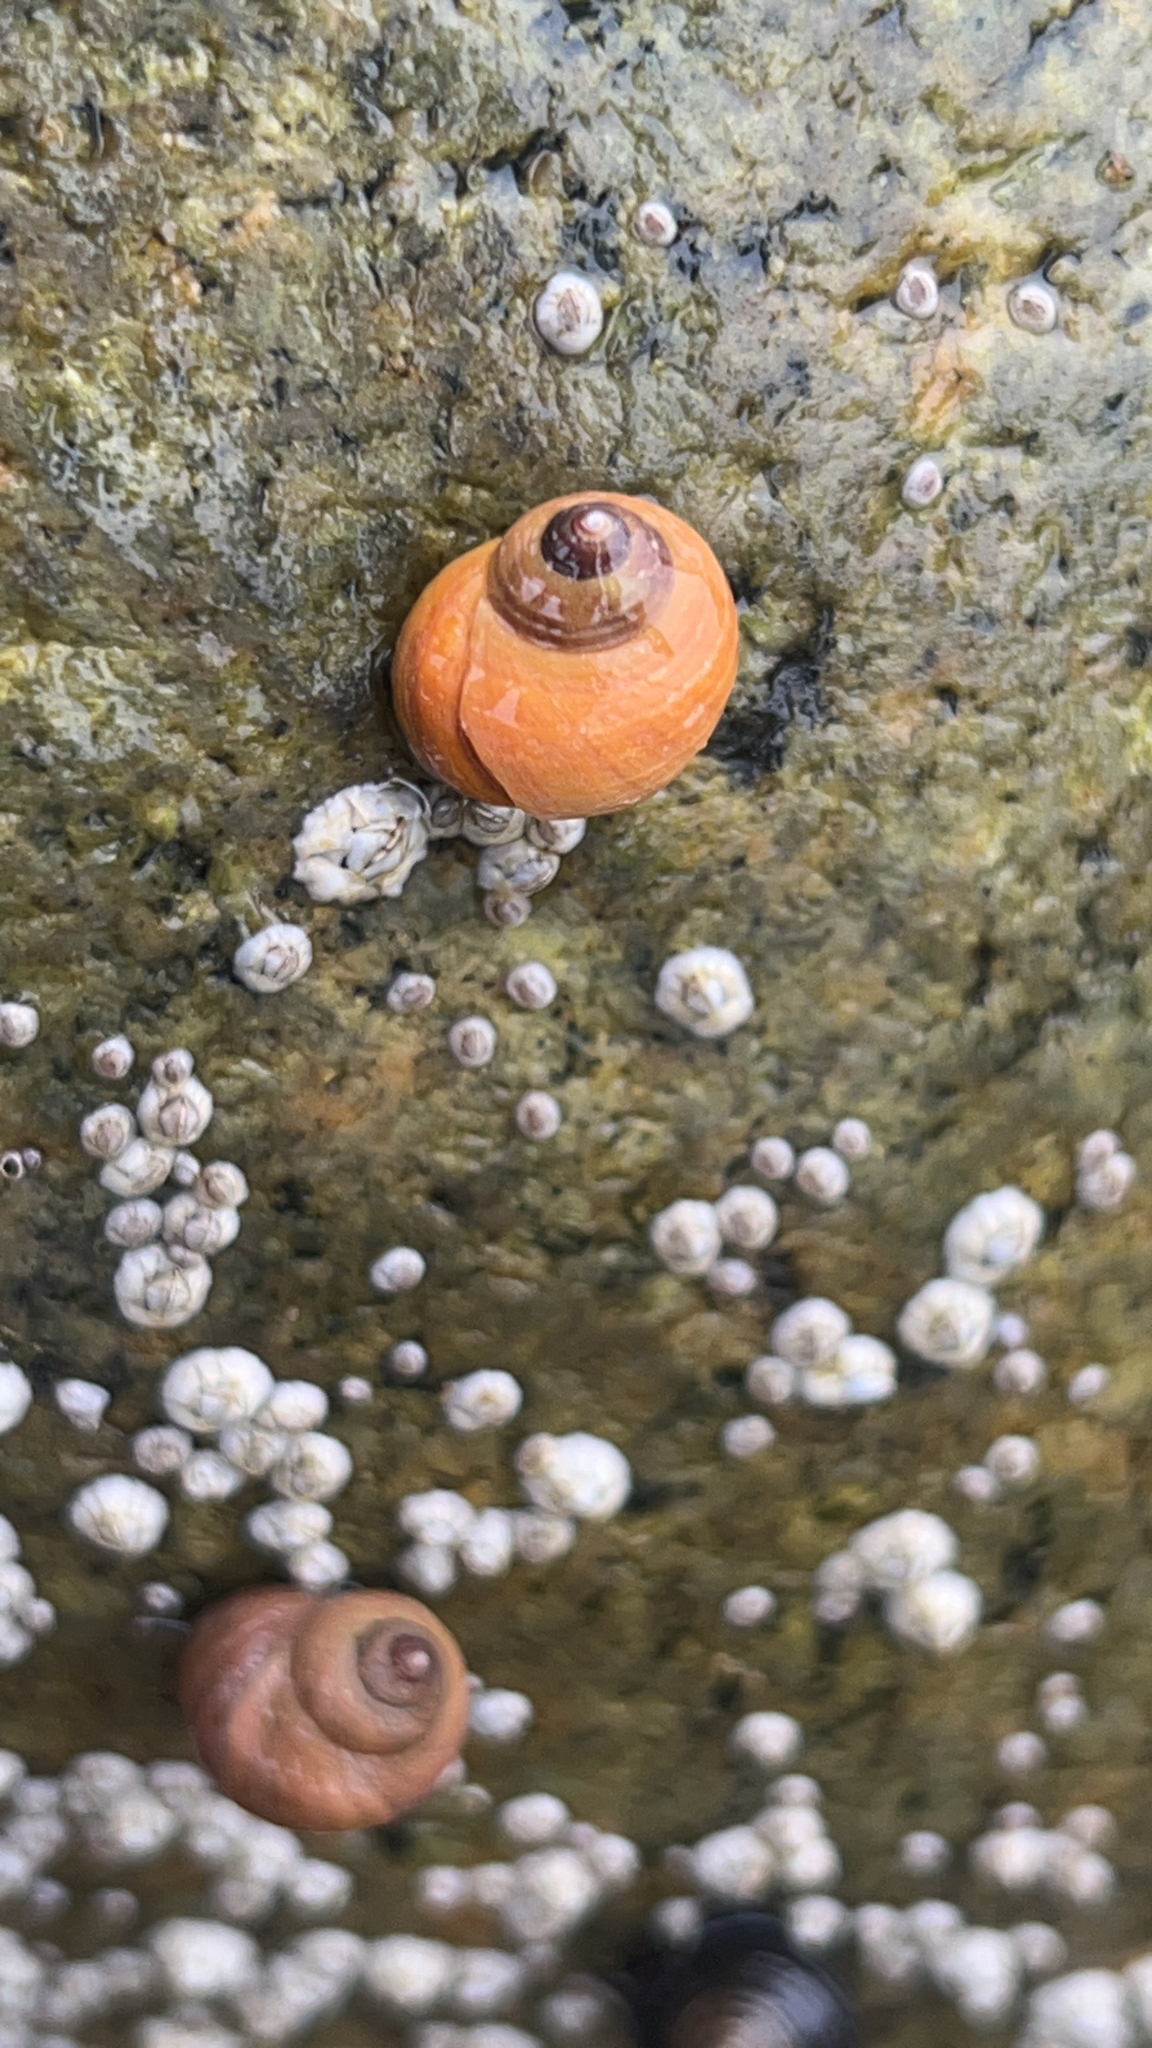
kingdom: Animalia
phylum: Mollusca
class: Gastropoda
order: Littorinimorpha
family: Littorinidae
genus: Littorina
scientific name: Littorina saxatilis
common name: Black-lined periwinkle
